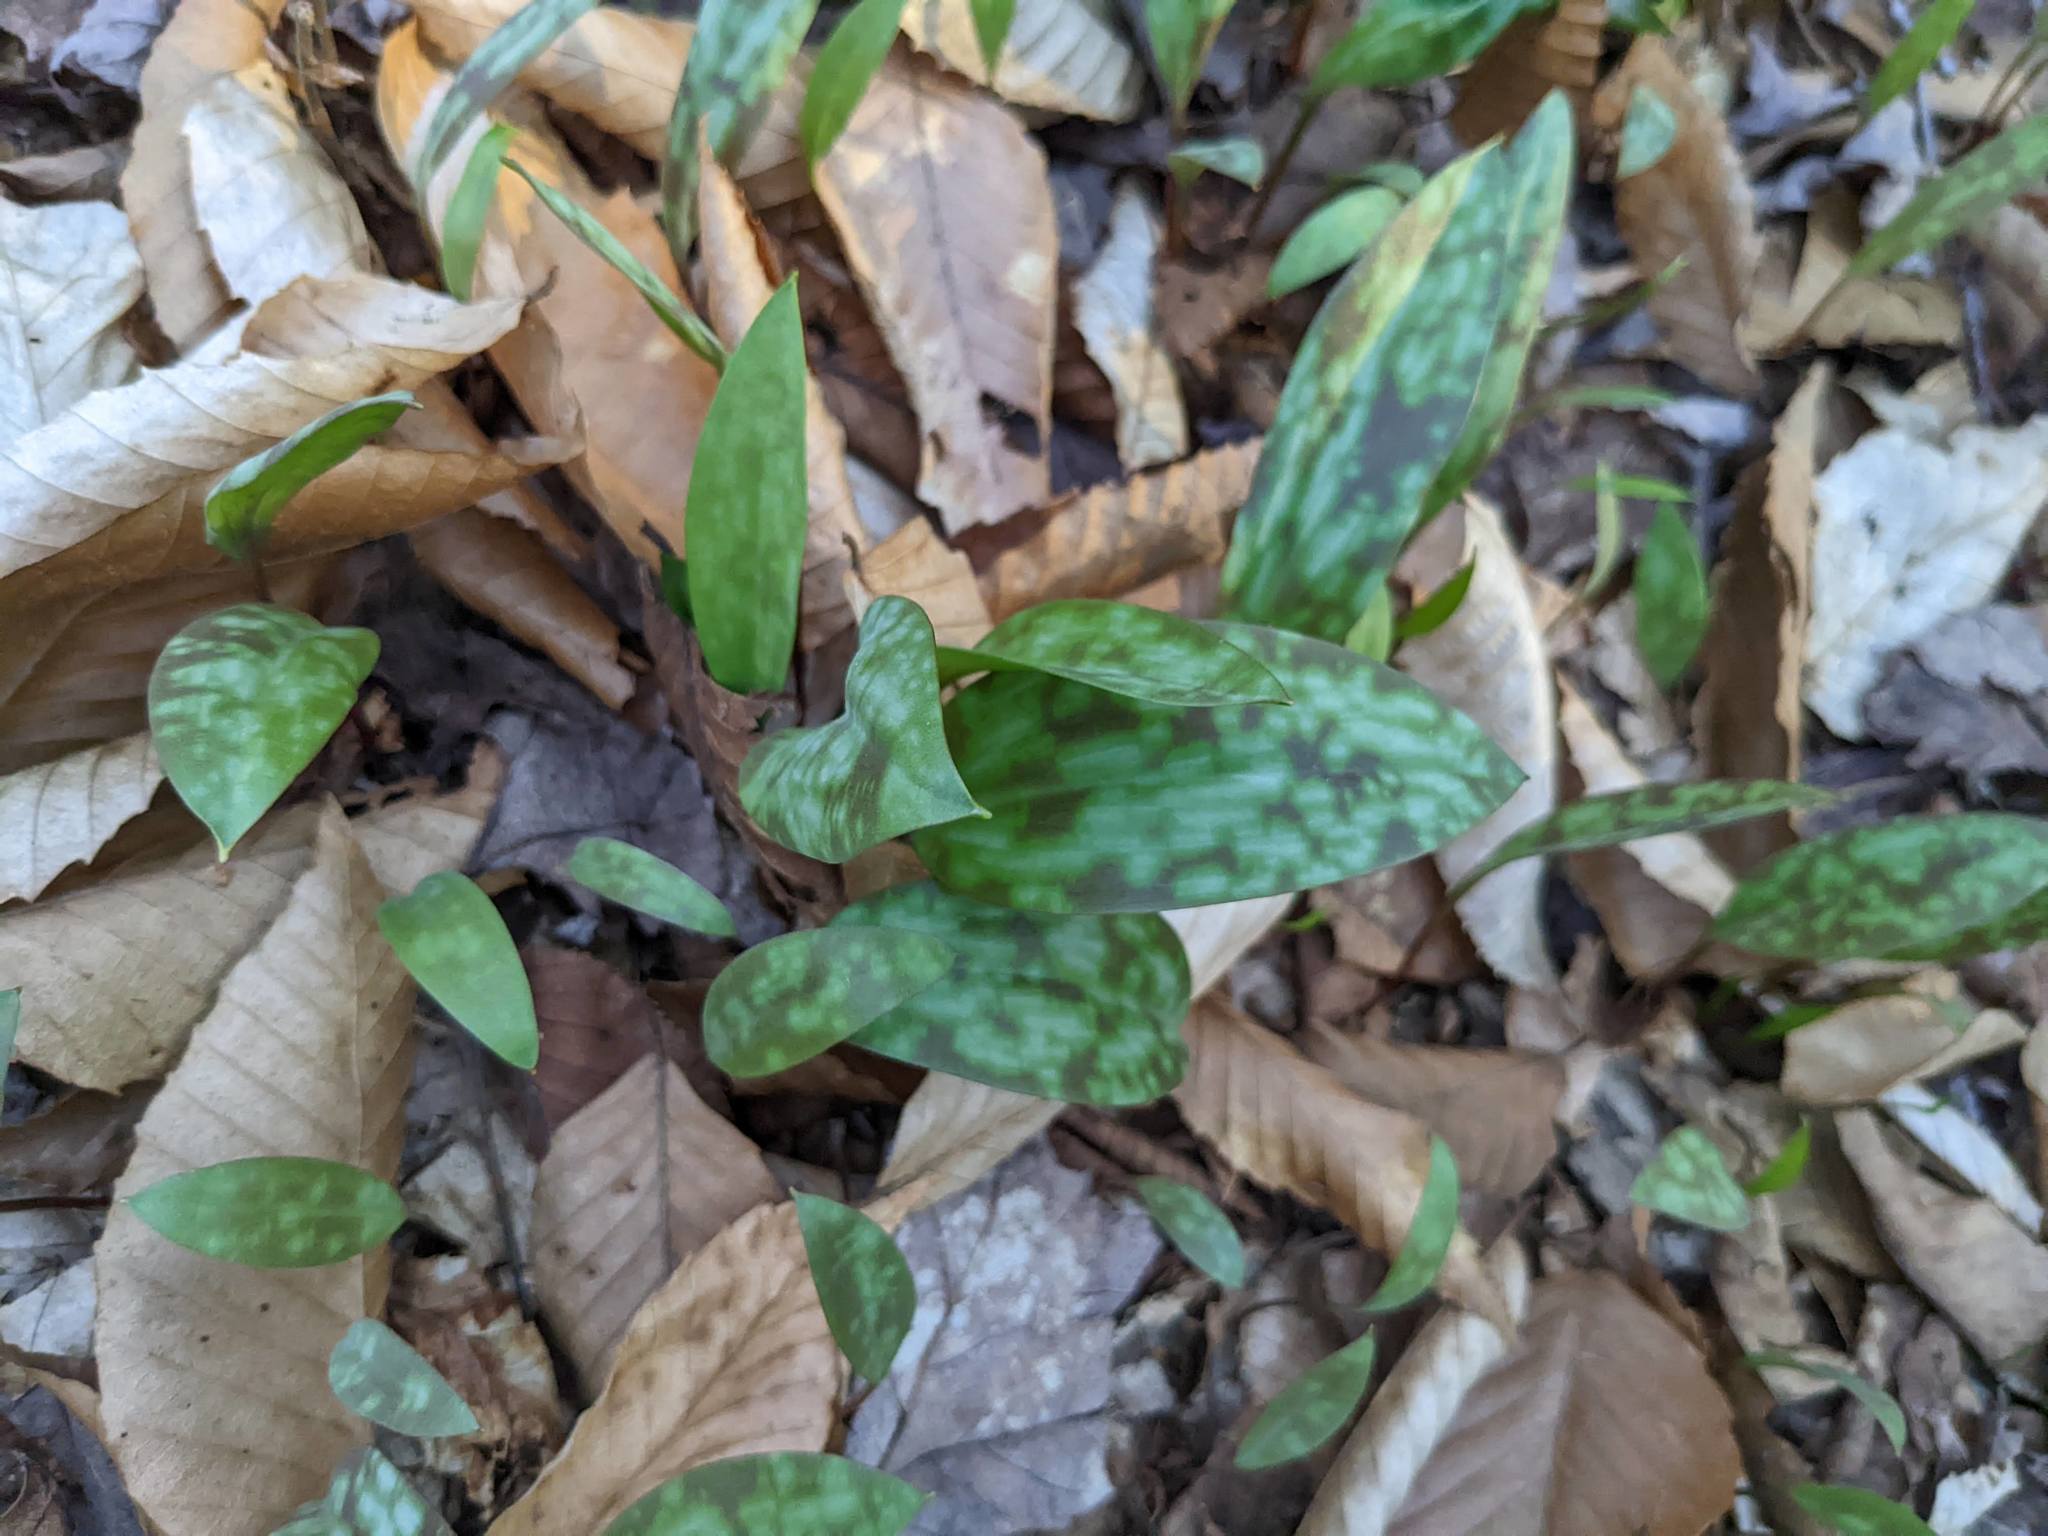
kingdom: Plantae
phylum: Tracheophyta
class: Liliopsida
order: Liliales
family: Liliaceae
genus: Erythronium
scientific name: Erythronium americanum
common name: Yellow adder's-tongue
